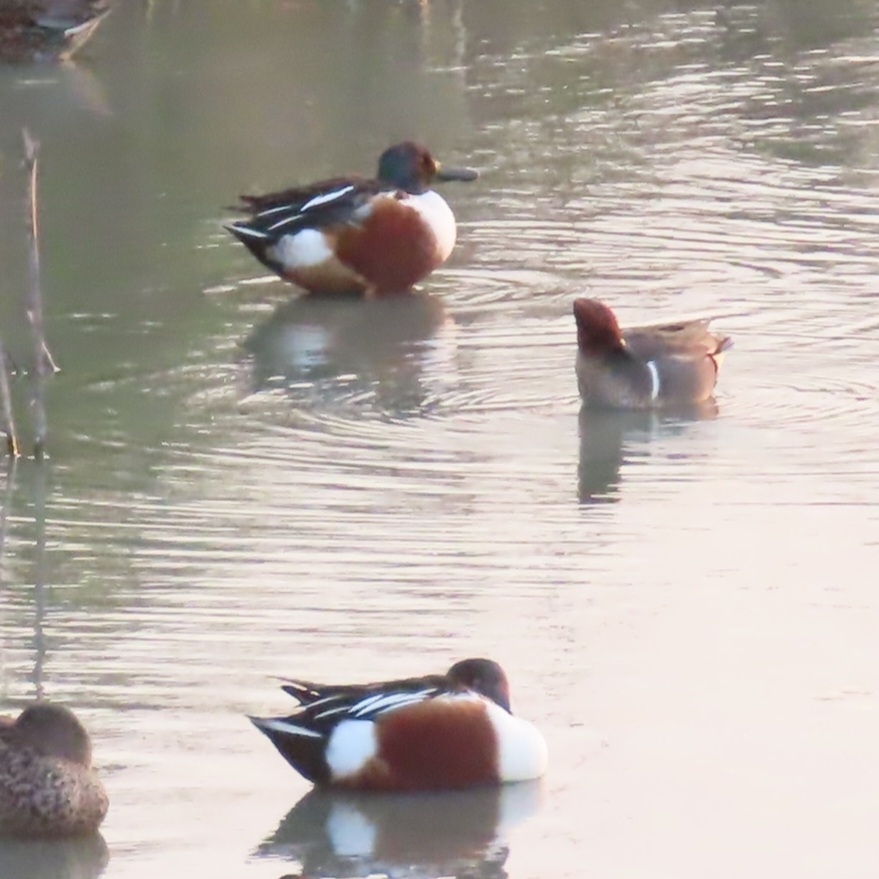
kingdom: Animalia
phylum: Chordata
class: Aves
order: Anseriformes
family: Anatidae
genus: Spatula
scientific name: Spatula clypeata
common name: Northern shoveler
